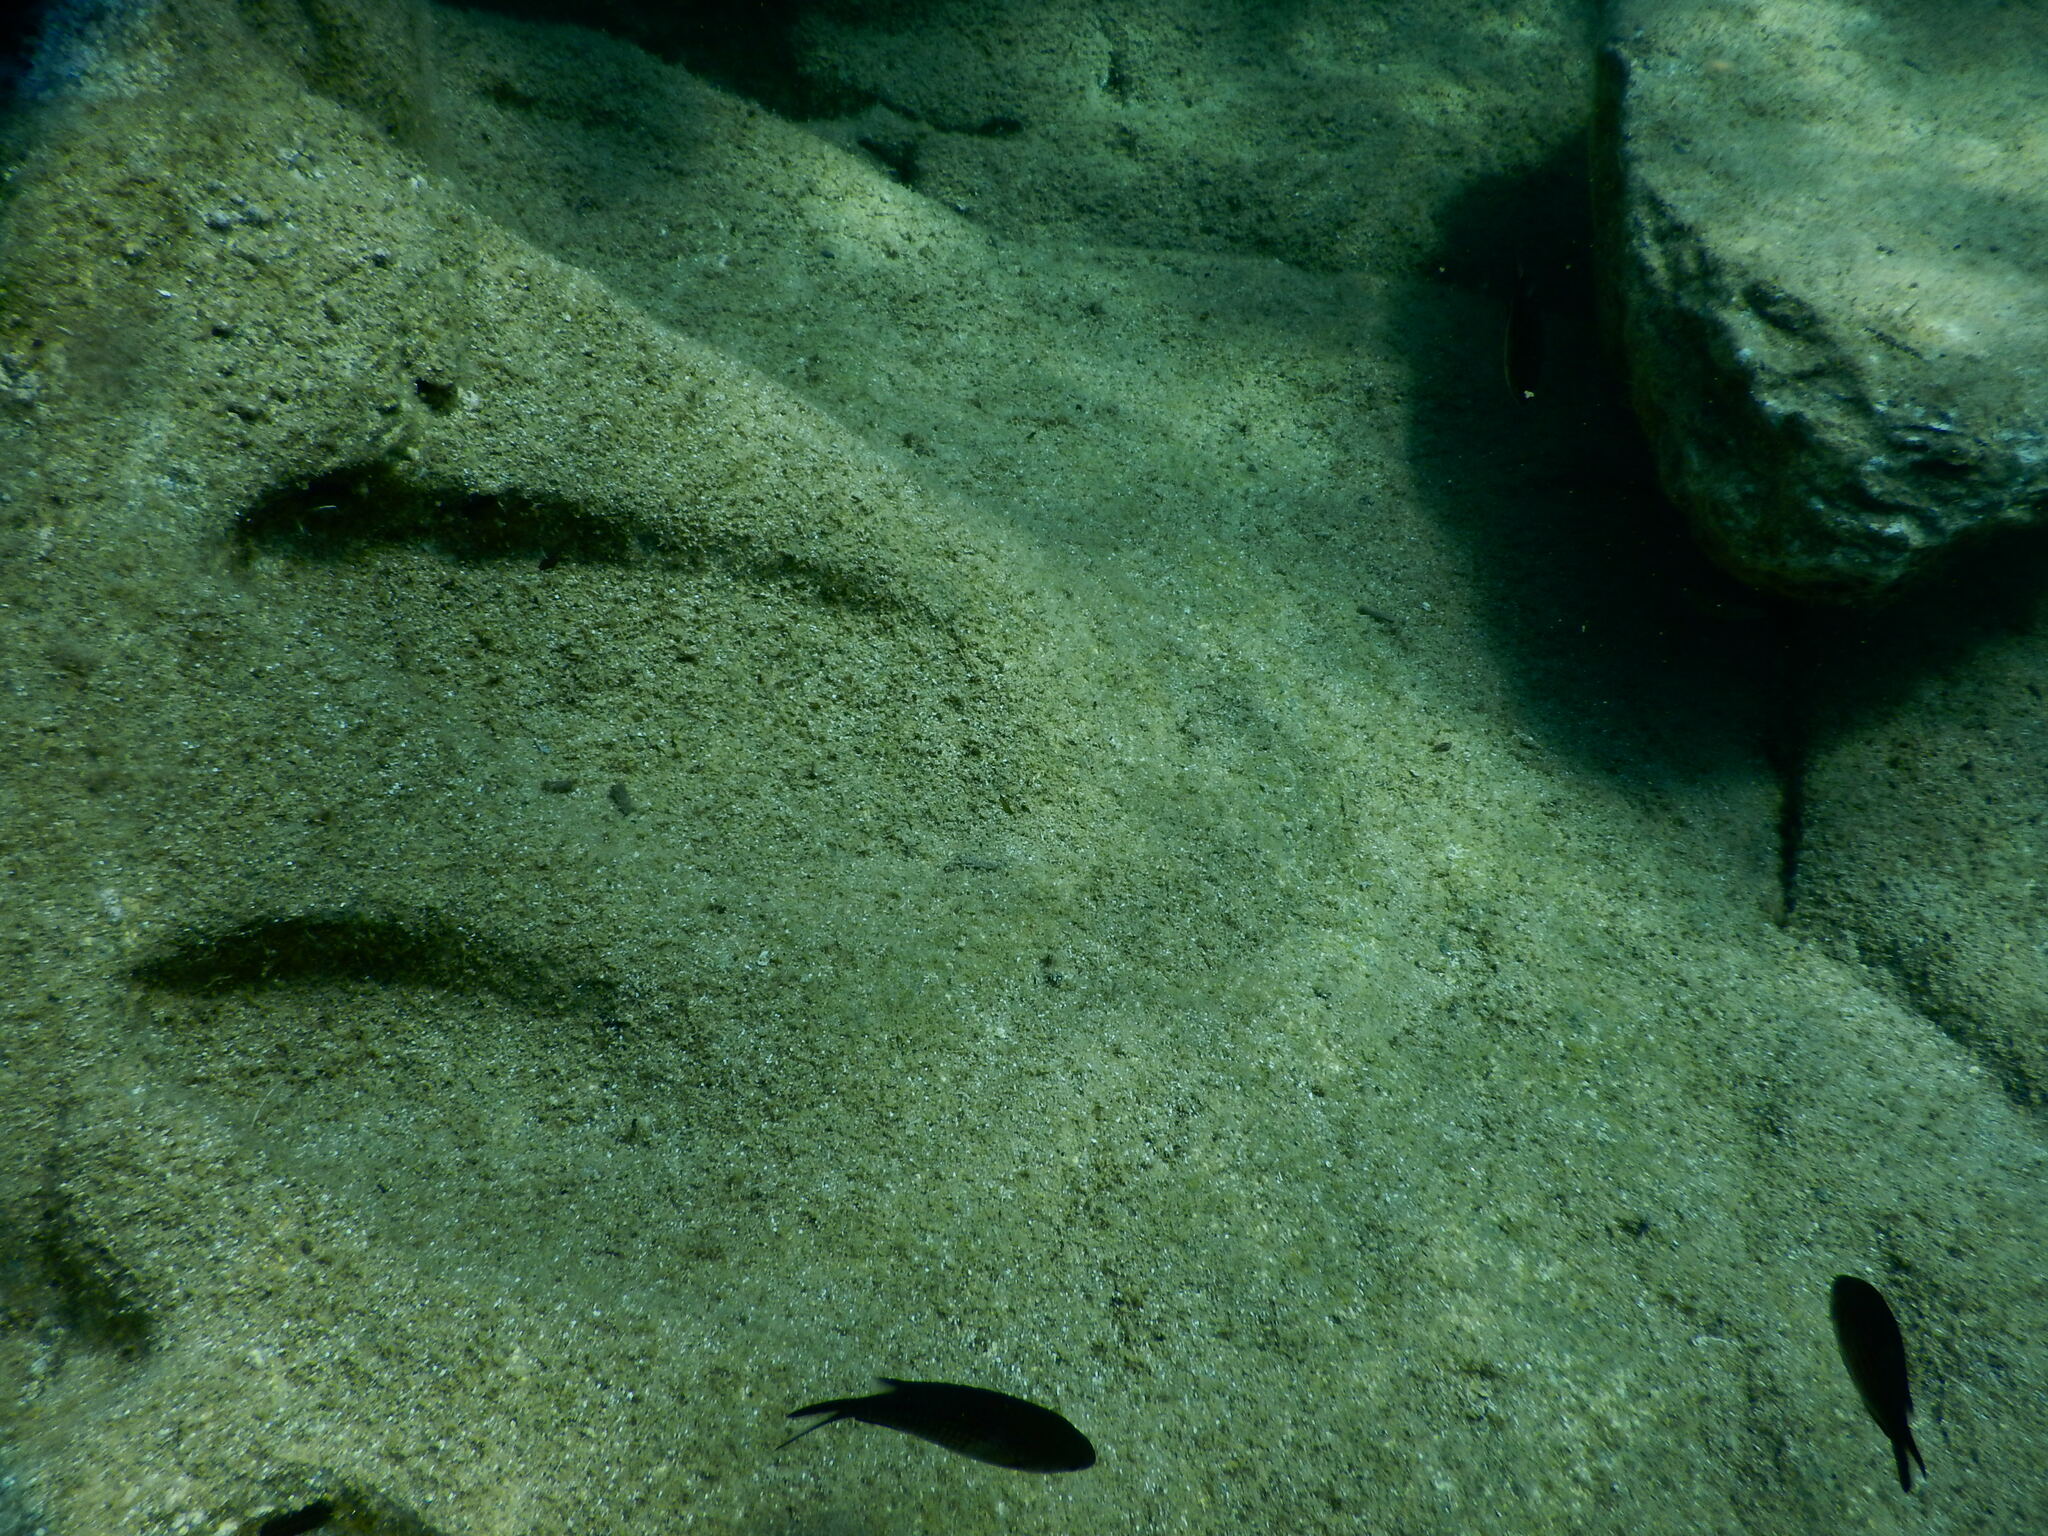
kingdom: Animalia
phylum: Chordata
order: Perciformes
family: Pomacentridae
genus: Chromis
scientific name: Chromis chromis
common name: Damselfish
